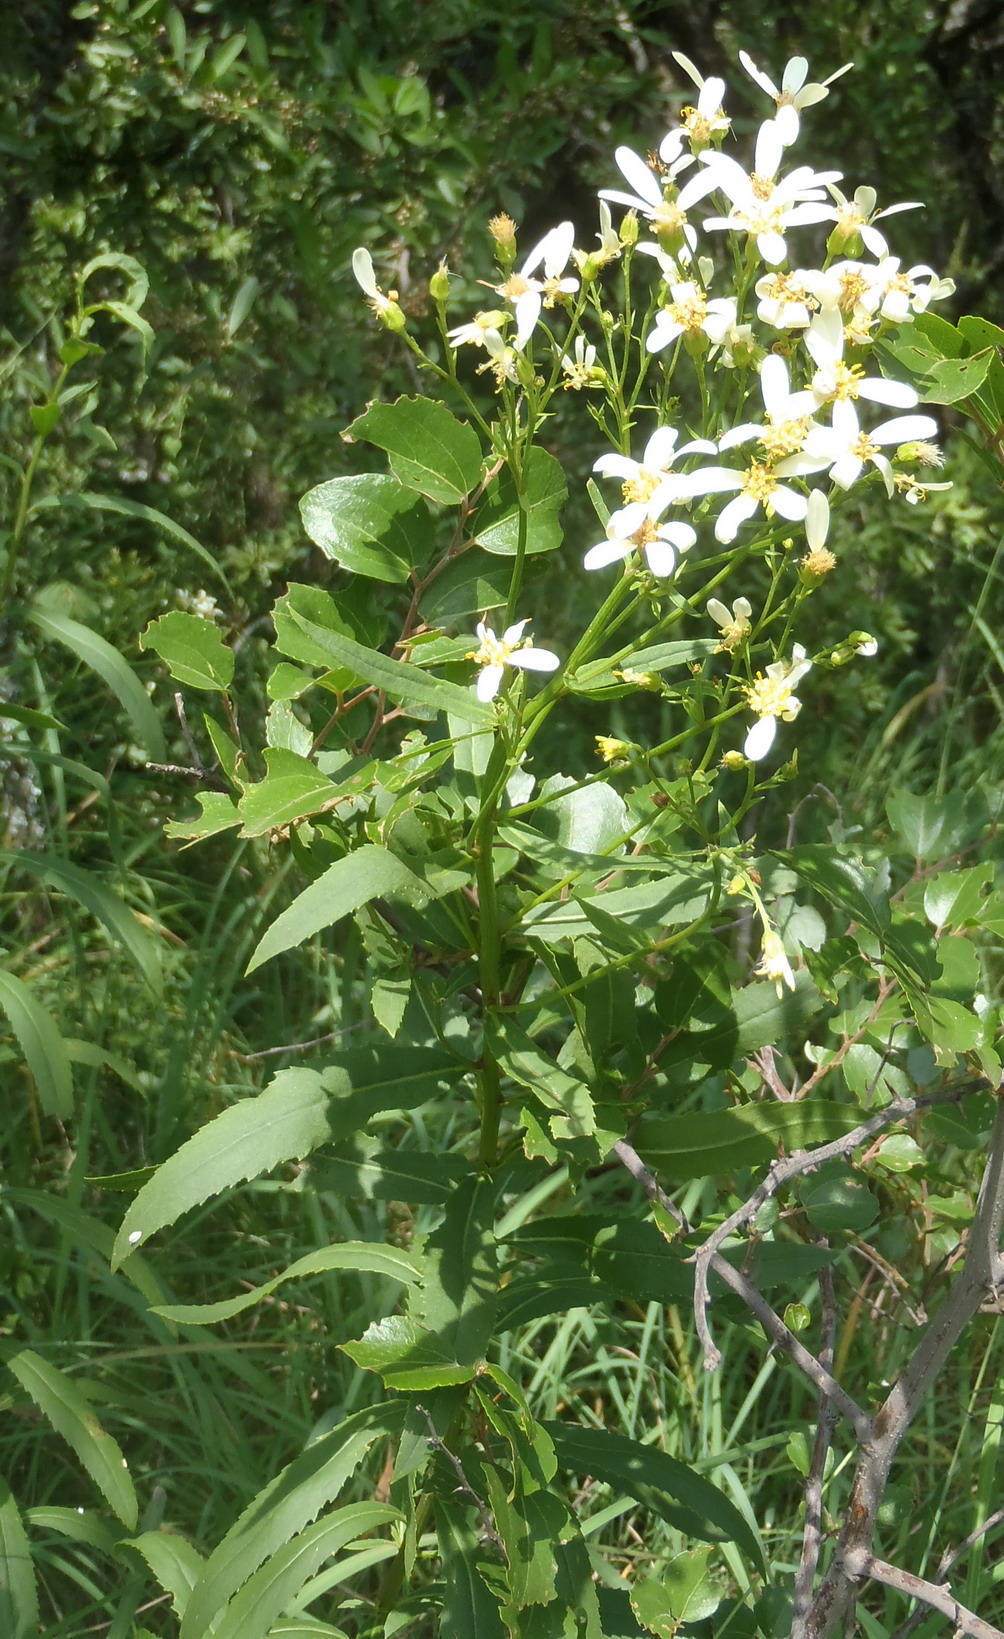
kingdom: Plantae
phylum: Tracheophyta
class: Magnoliopsida
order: Asterales
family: Asteraceae
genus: Senecio
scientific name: Senecio pentactinus
